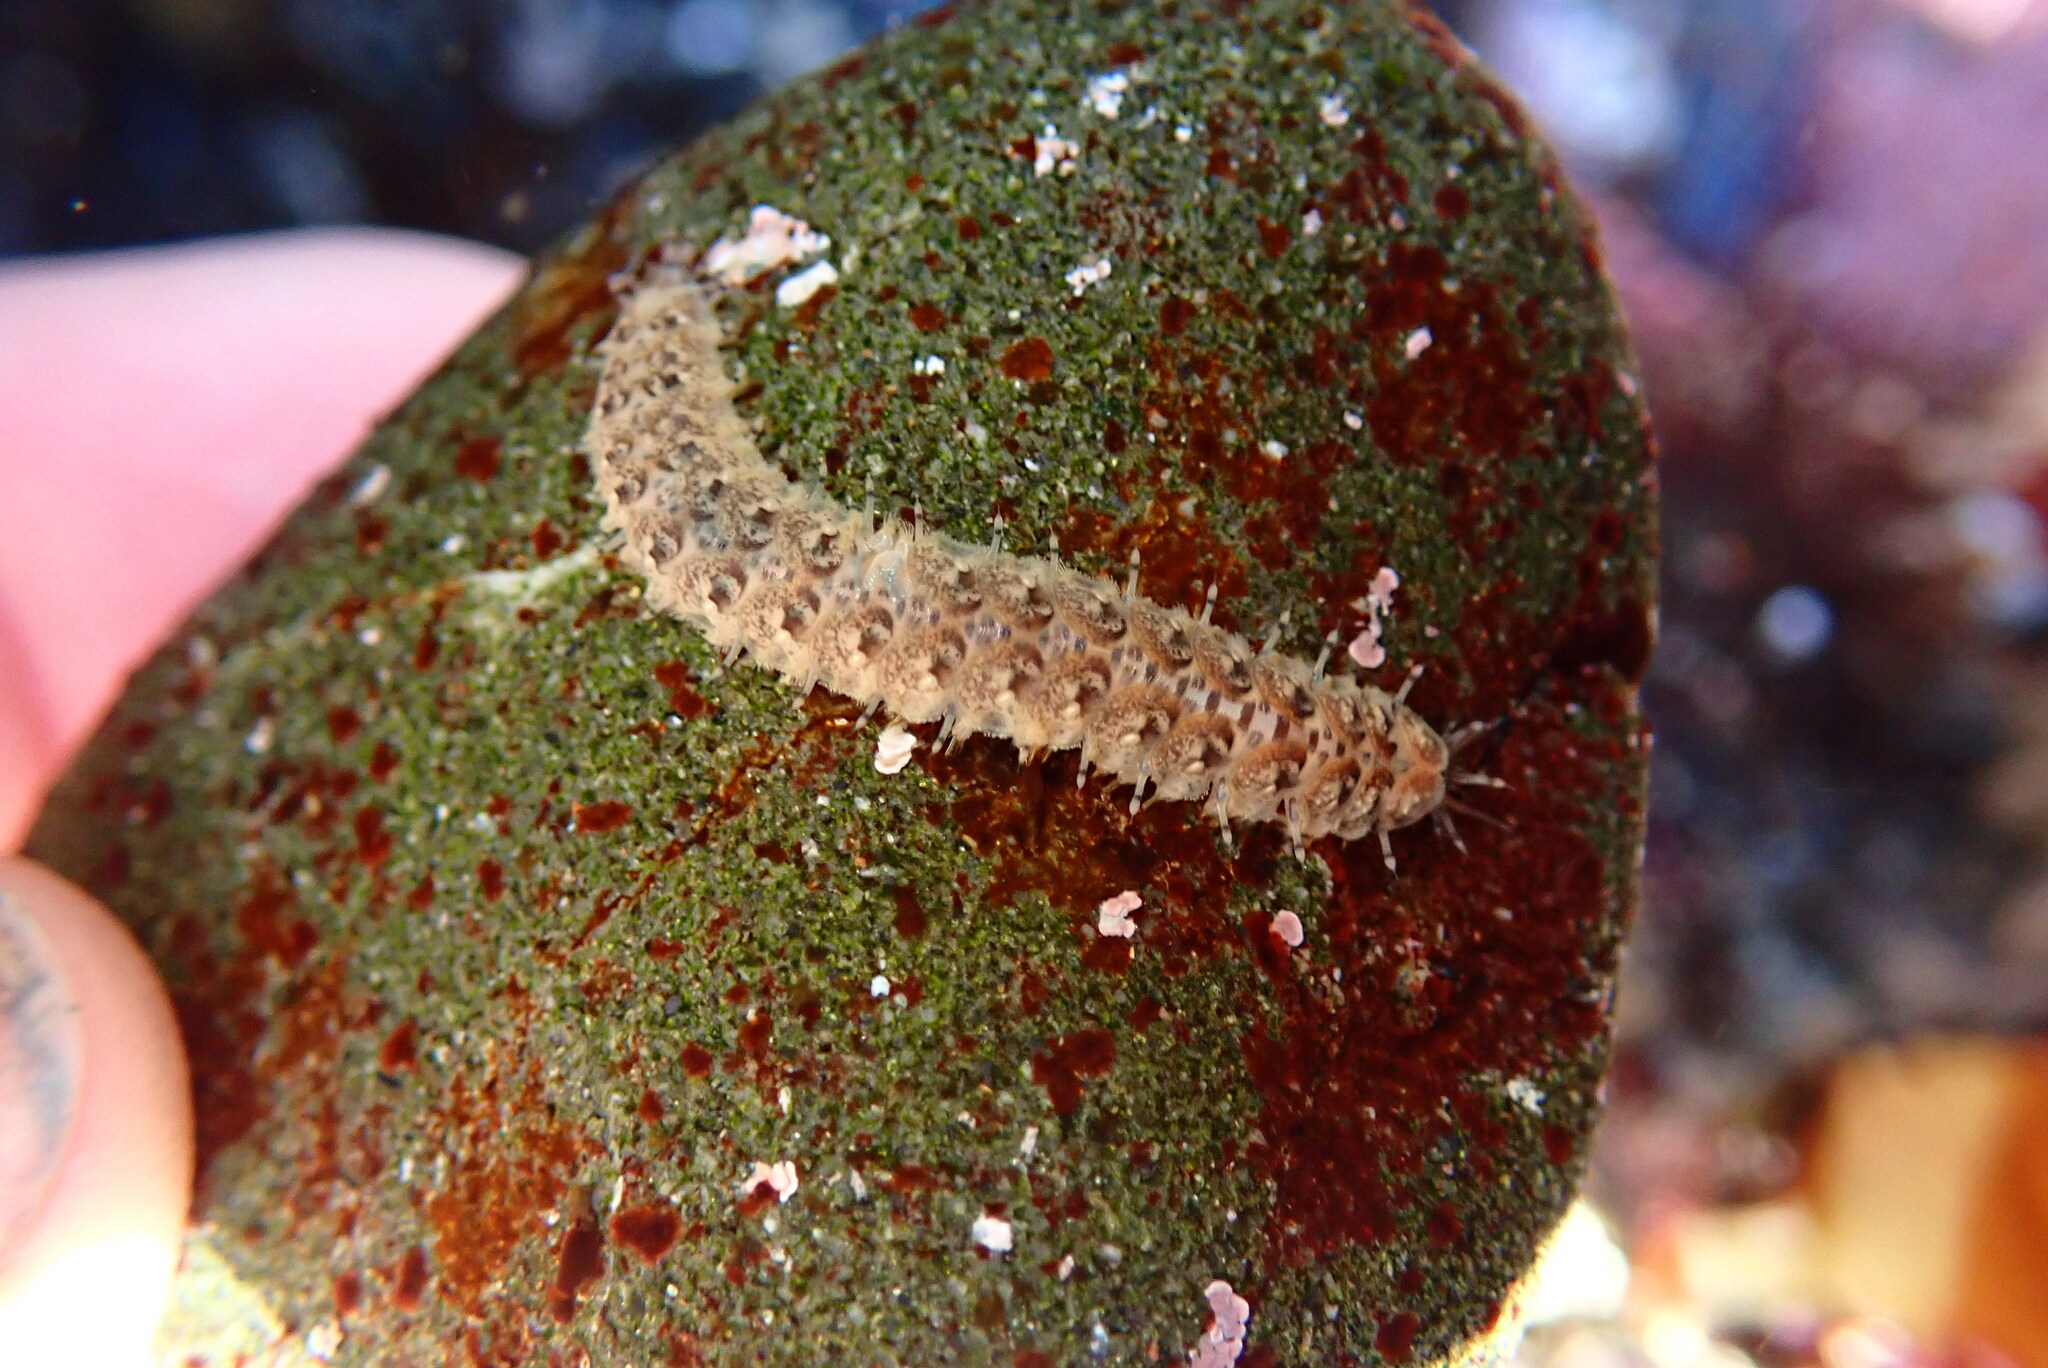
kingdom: Animalia
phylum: Annelida
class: Polychaeta
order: Phyllodocida
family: Polynoidae
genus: Halosydna
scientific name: Halosydna brevisetosa
